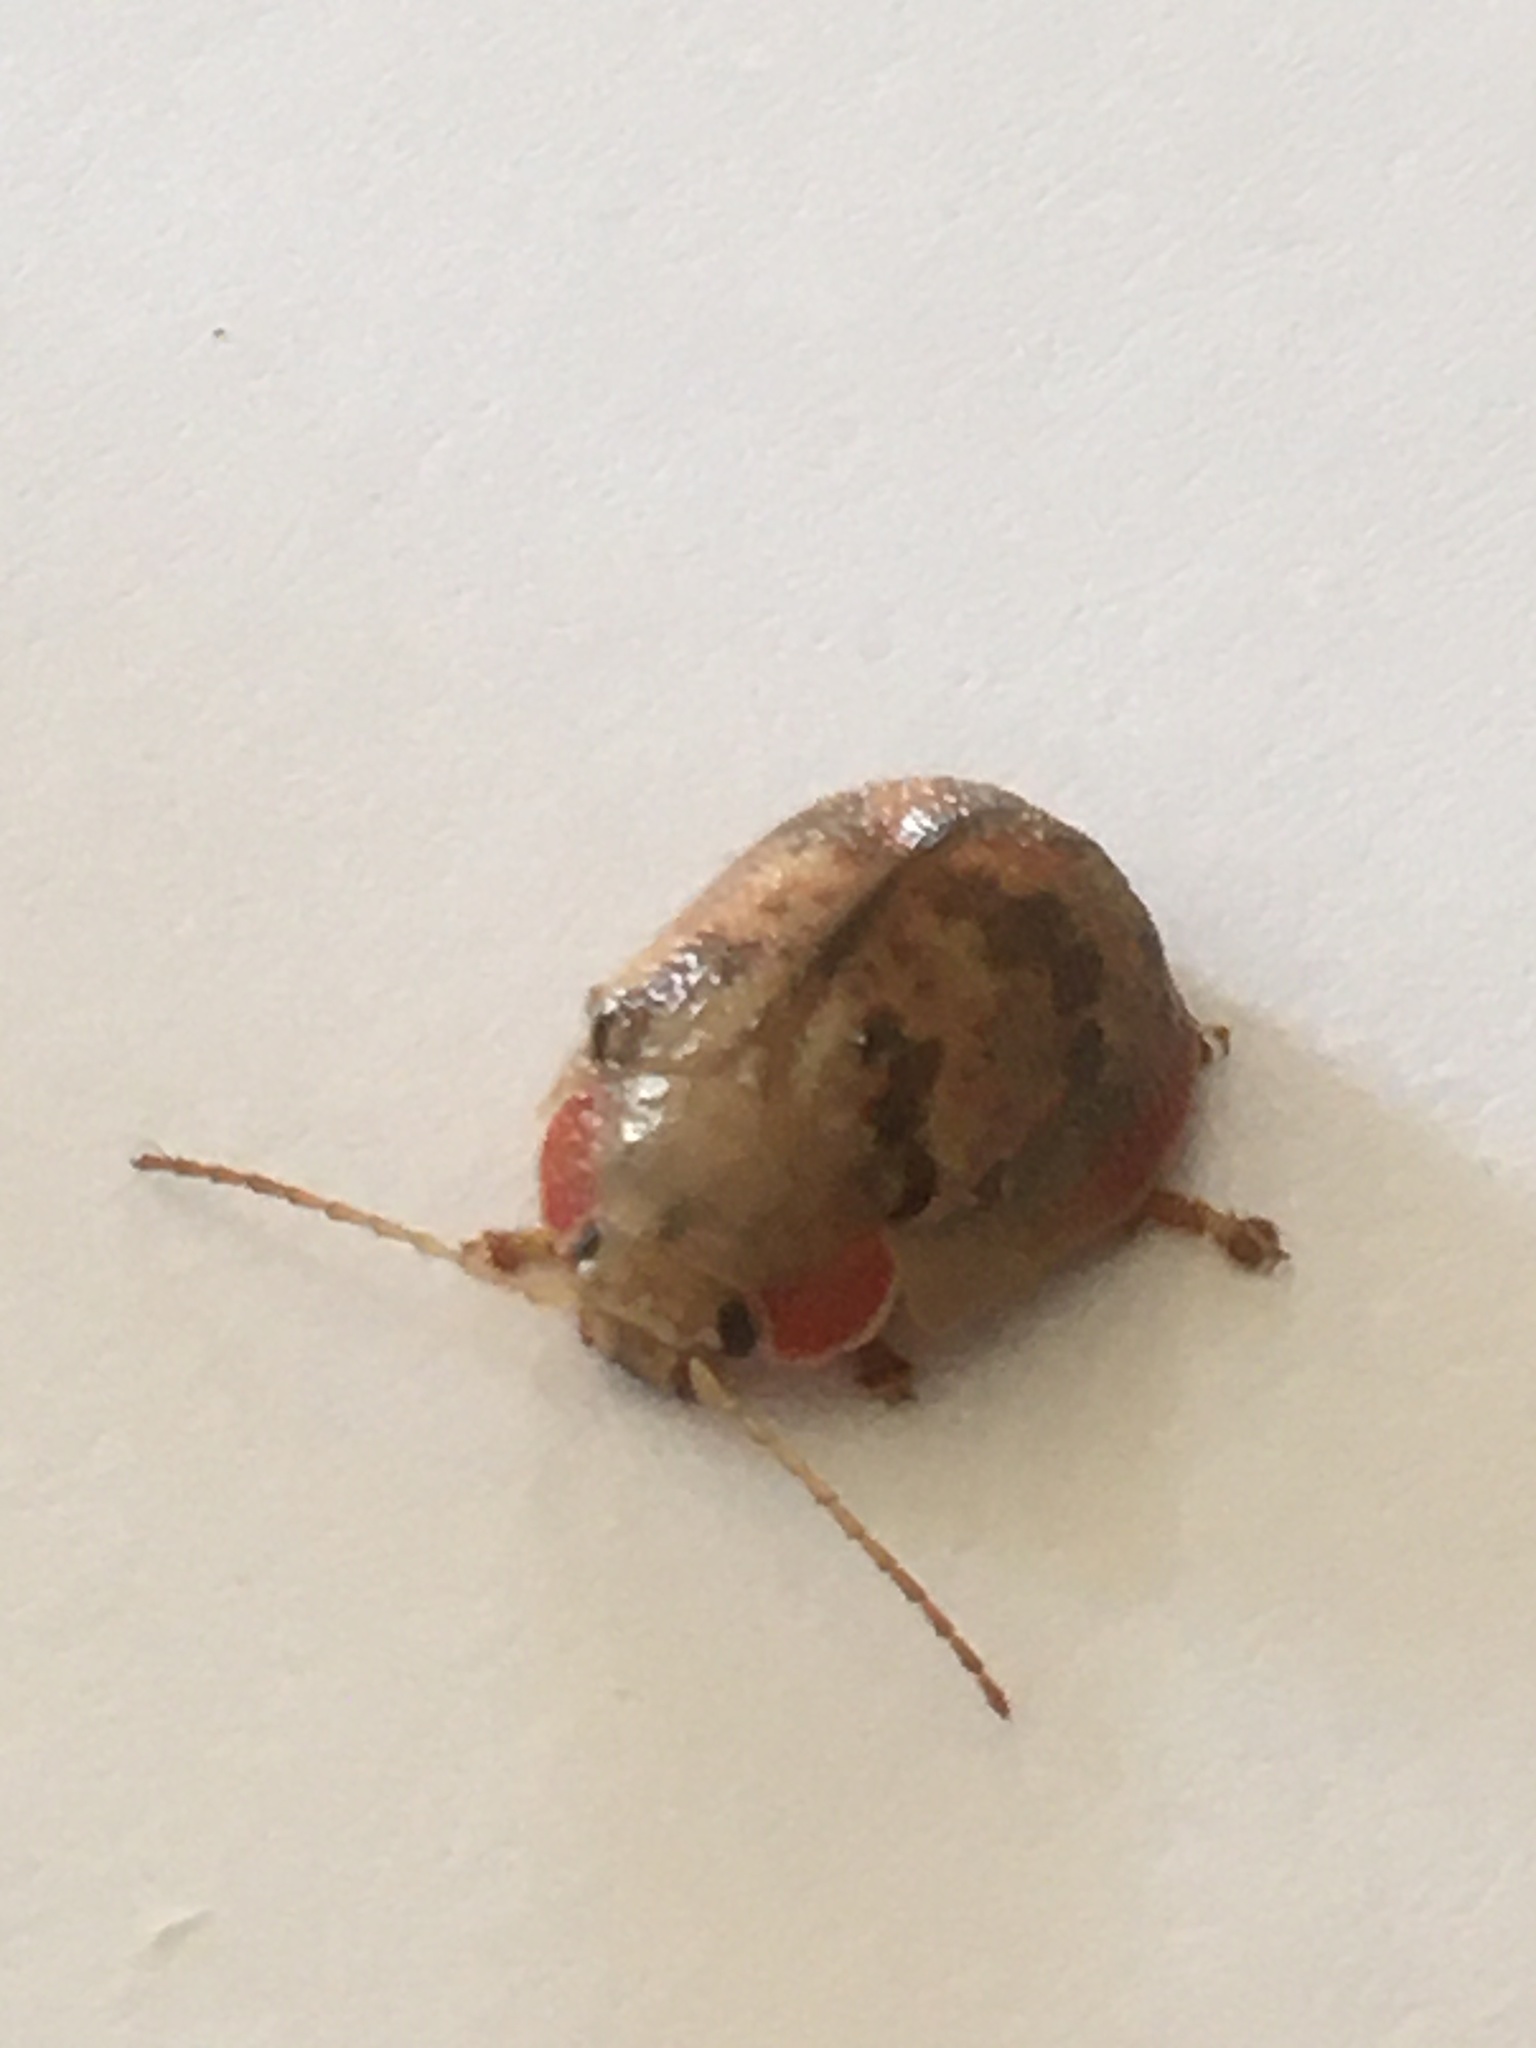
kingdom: Animalia
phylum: Arthropoda
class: Insecta
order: Coleoptera
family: Chrysomelidae
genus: Paropsis
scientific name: Paropsis charybdis
